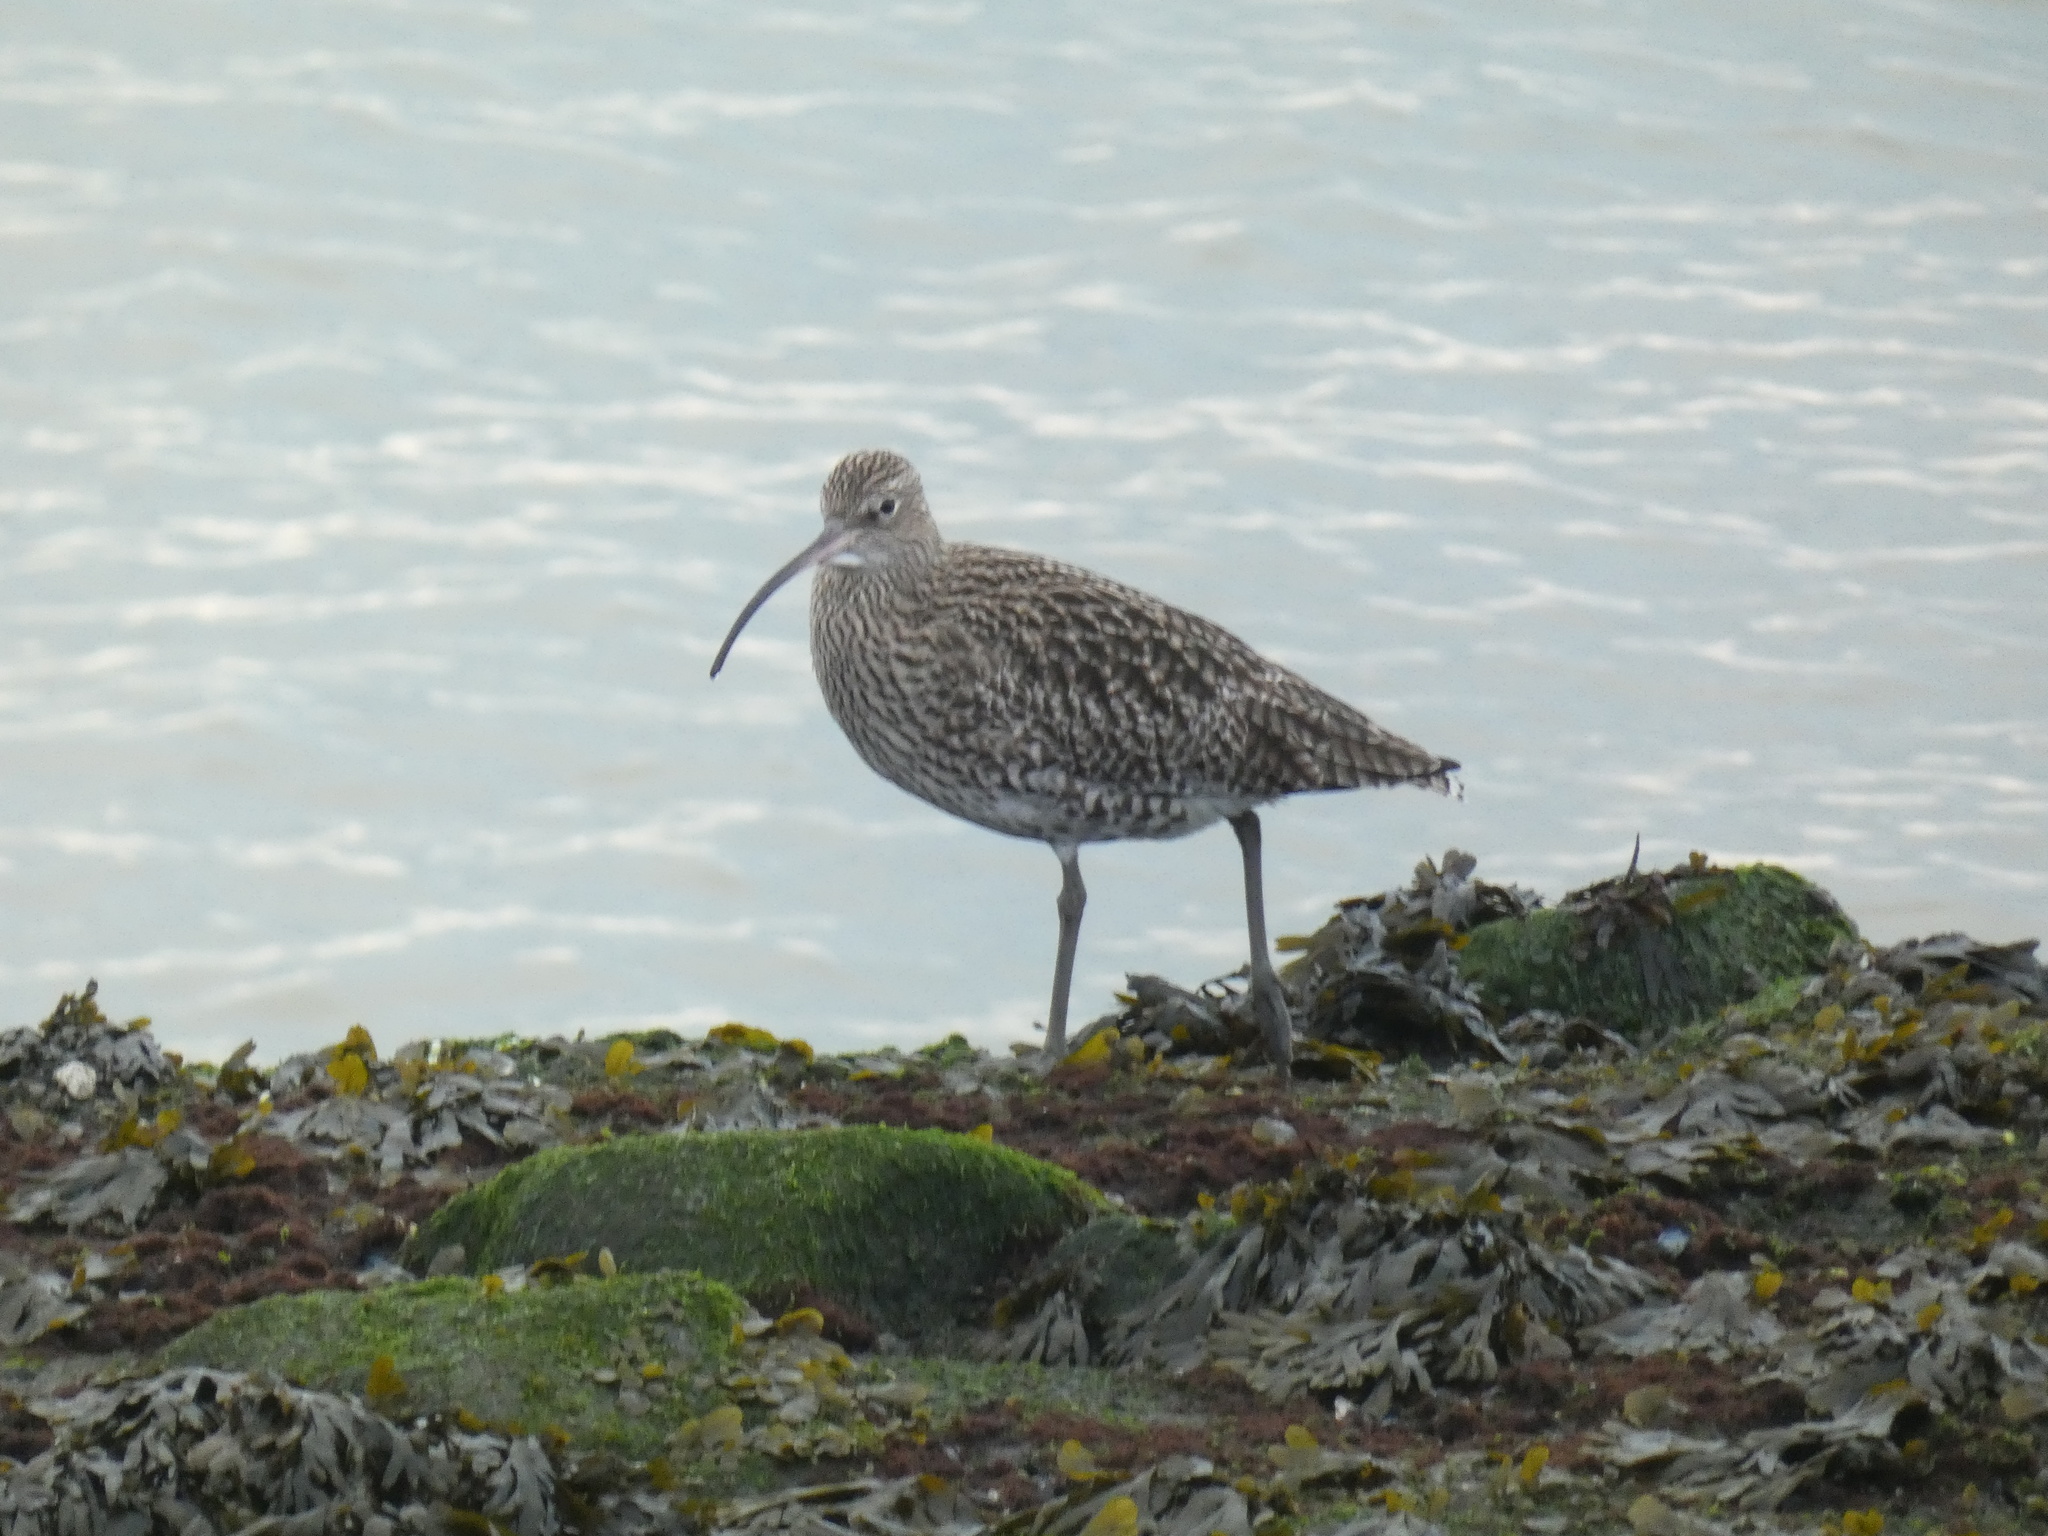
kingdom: Animalia
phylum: Chordata
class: Aves
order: Charadriiformes
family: Scolopacidae
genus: Numenius
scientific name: Numenius arquata
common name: Eurasian curlew
